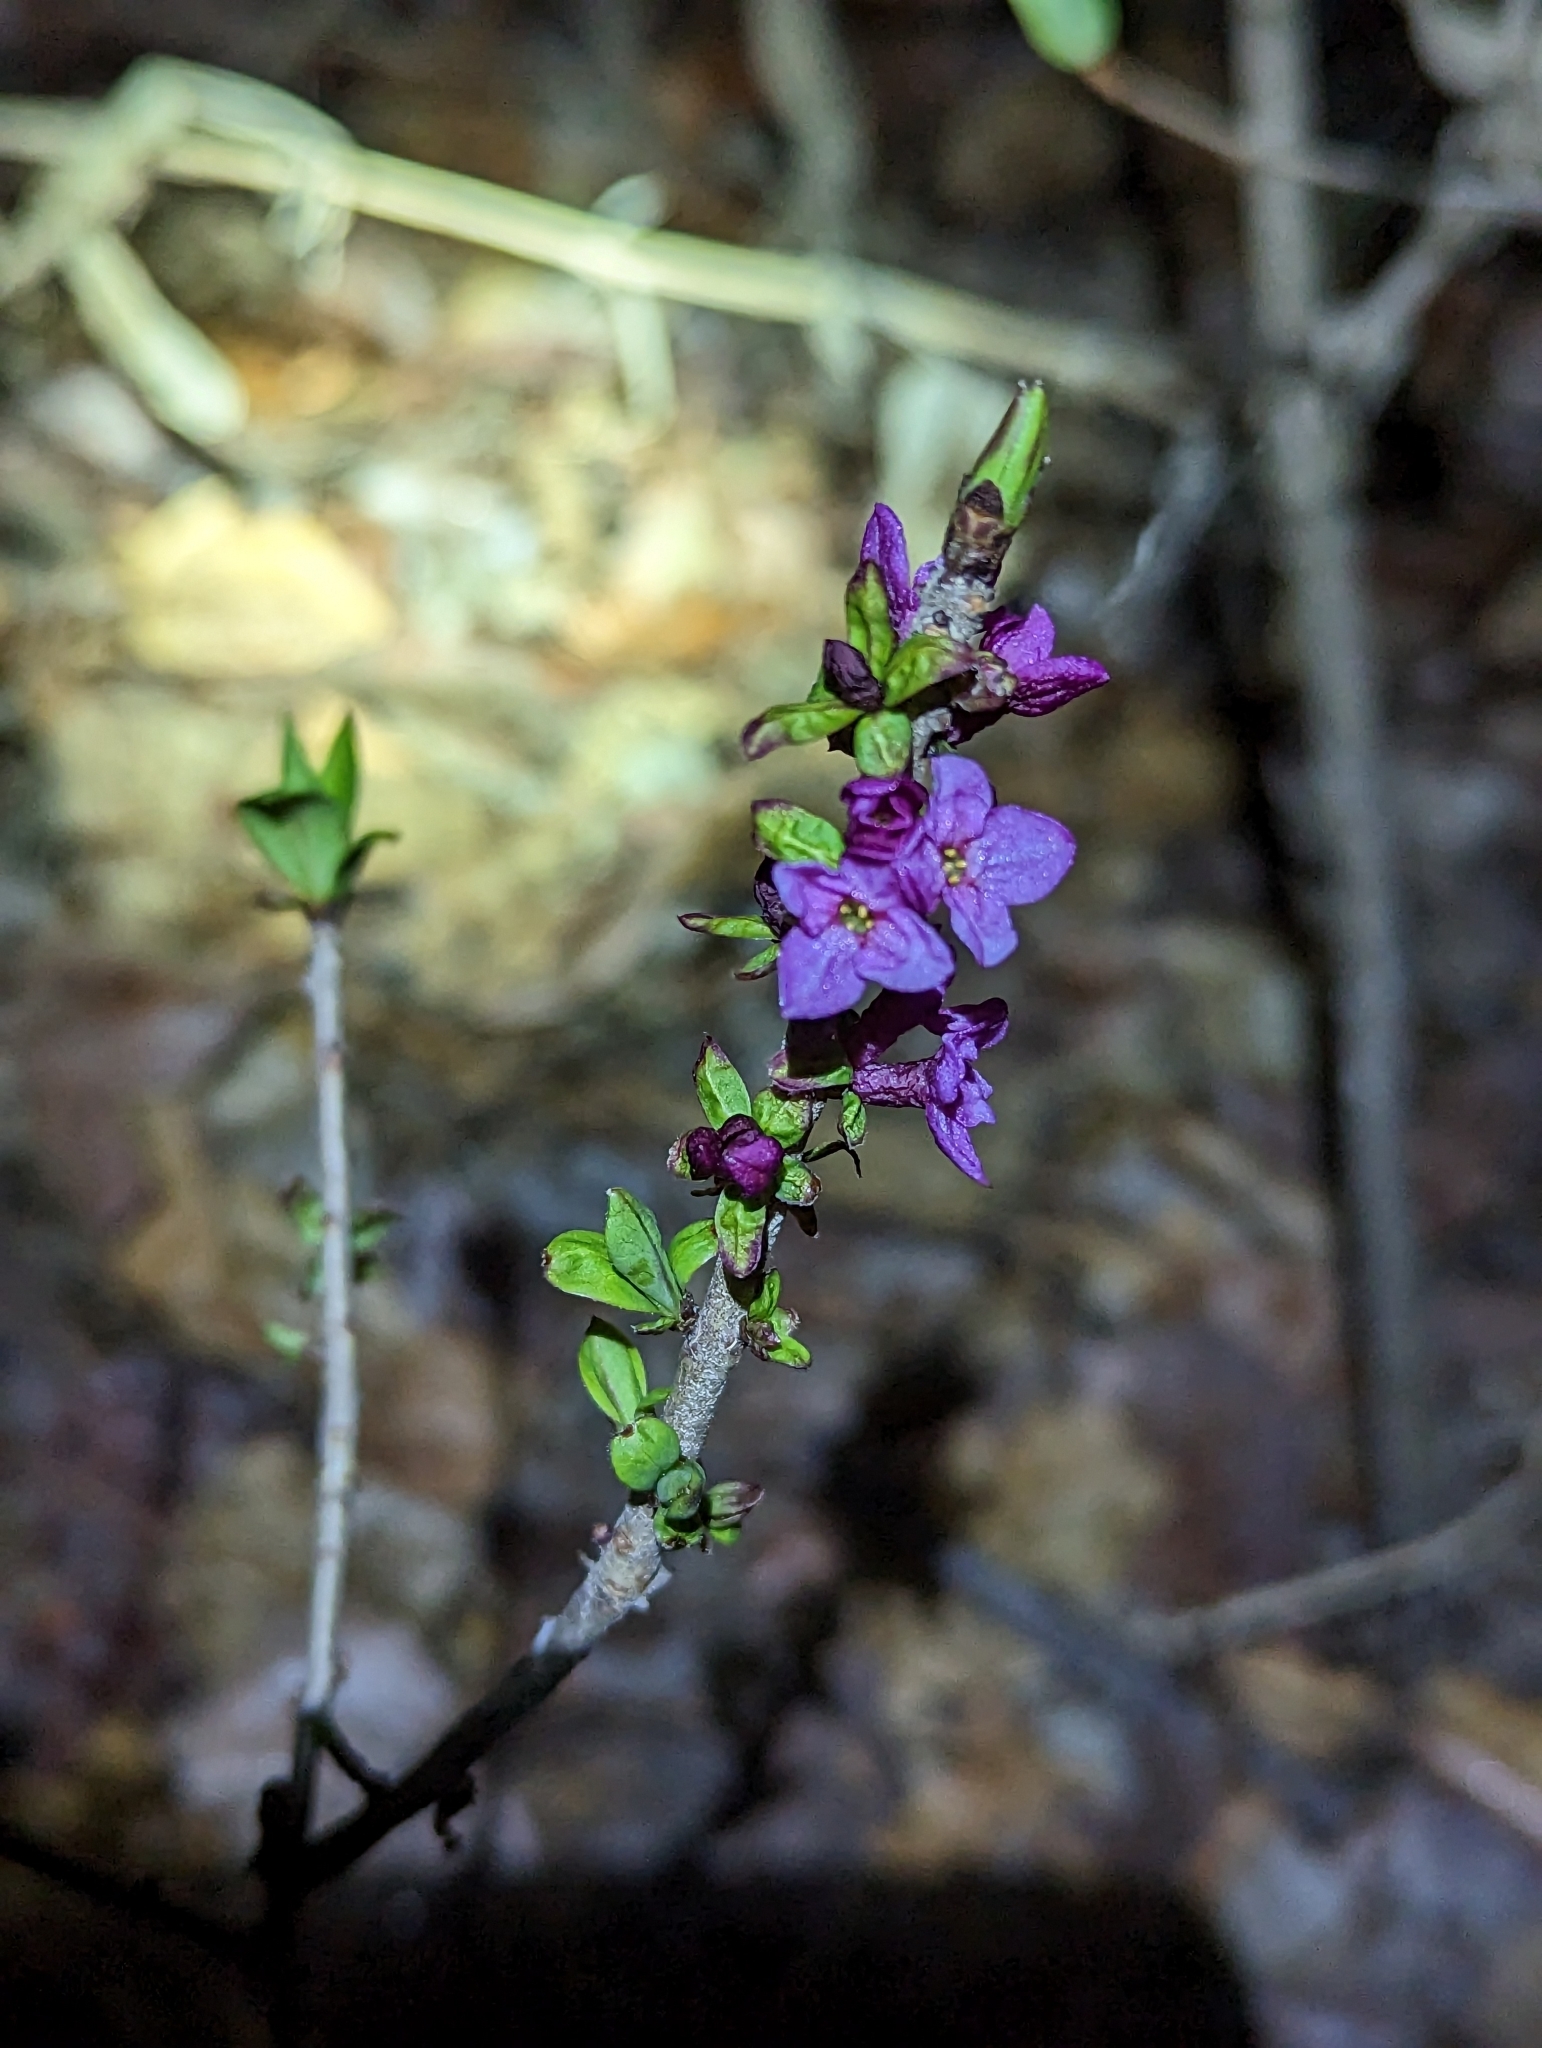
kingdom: Plantae
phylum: Tracheophyta
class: Magnoliopsida
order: Malvales
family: Thymelaeaceae
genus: Daphne
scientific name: Daphne mezereum
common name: Mezereon
